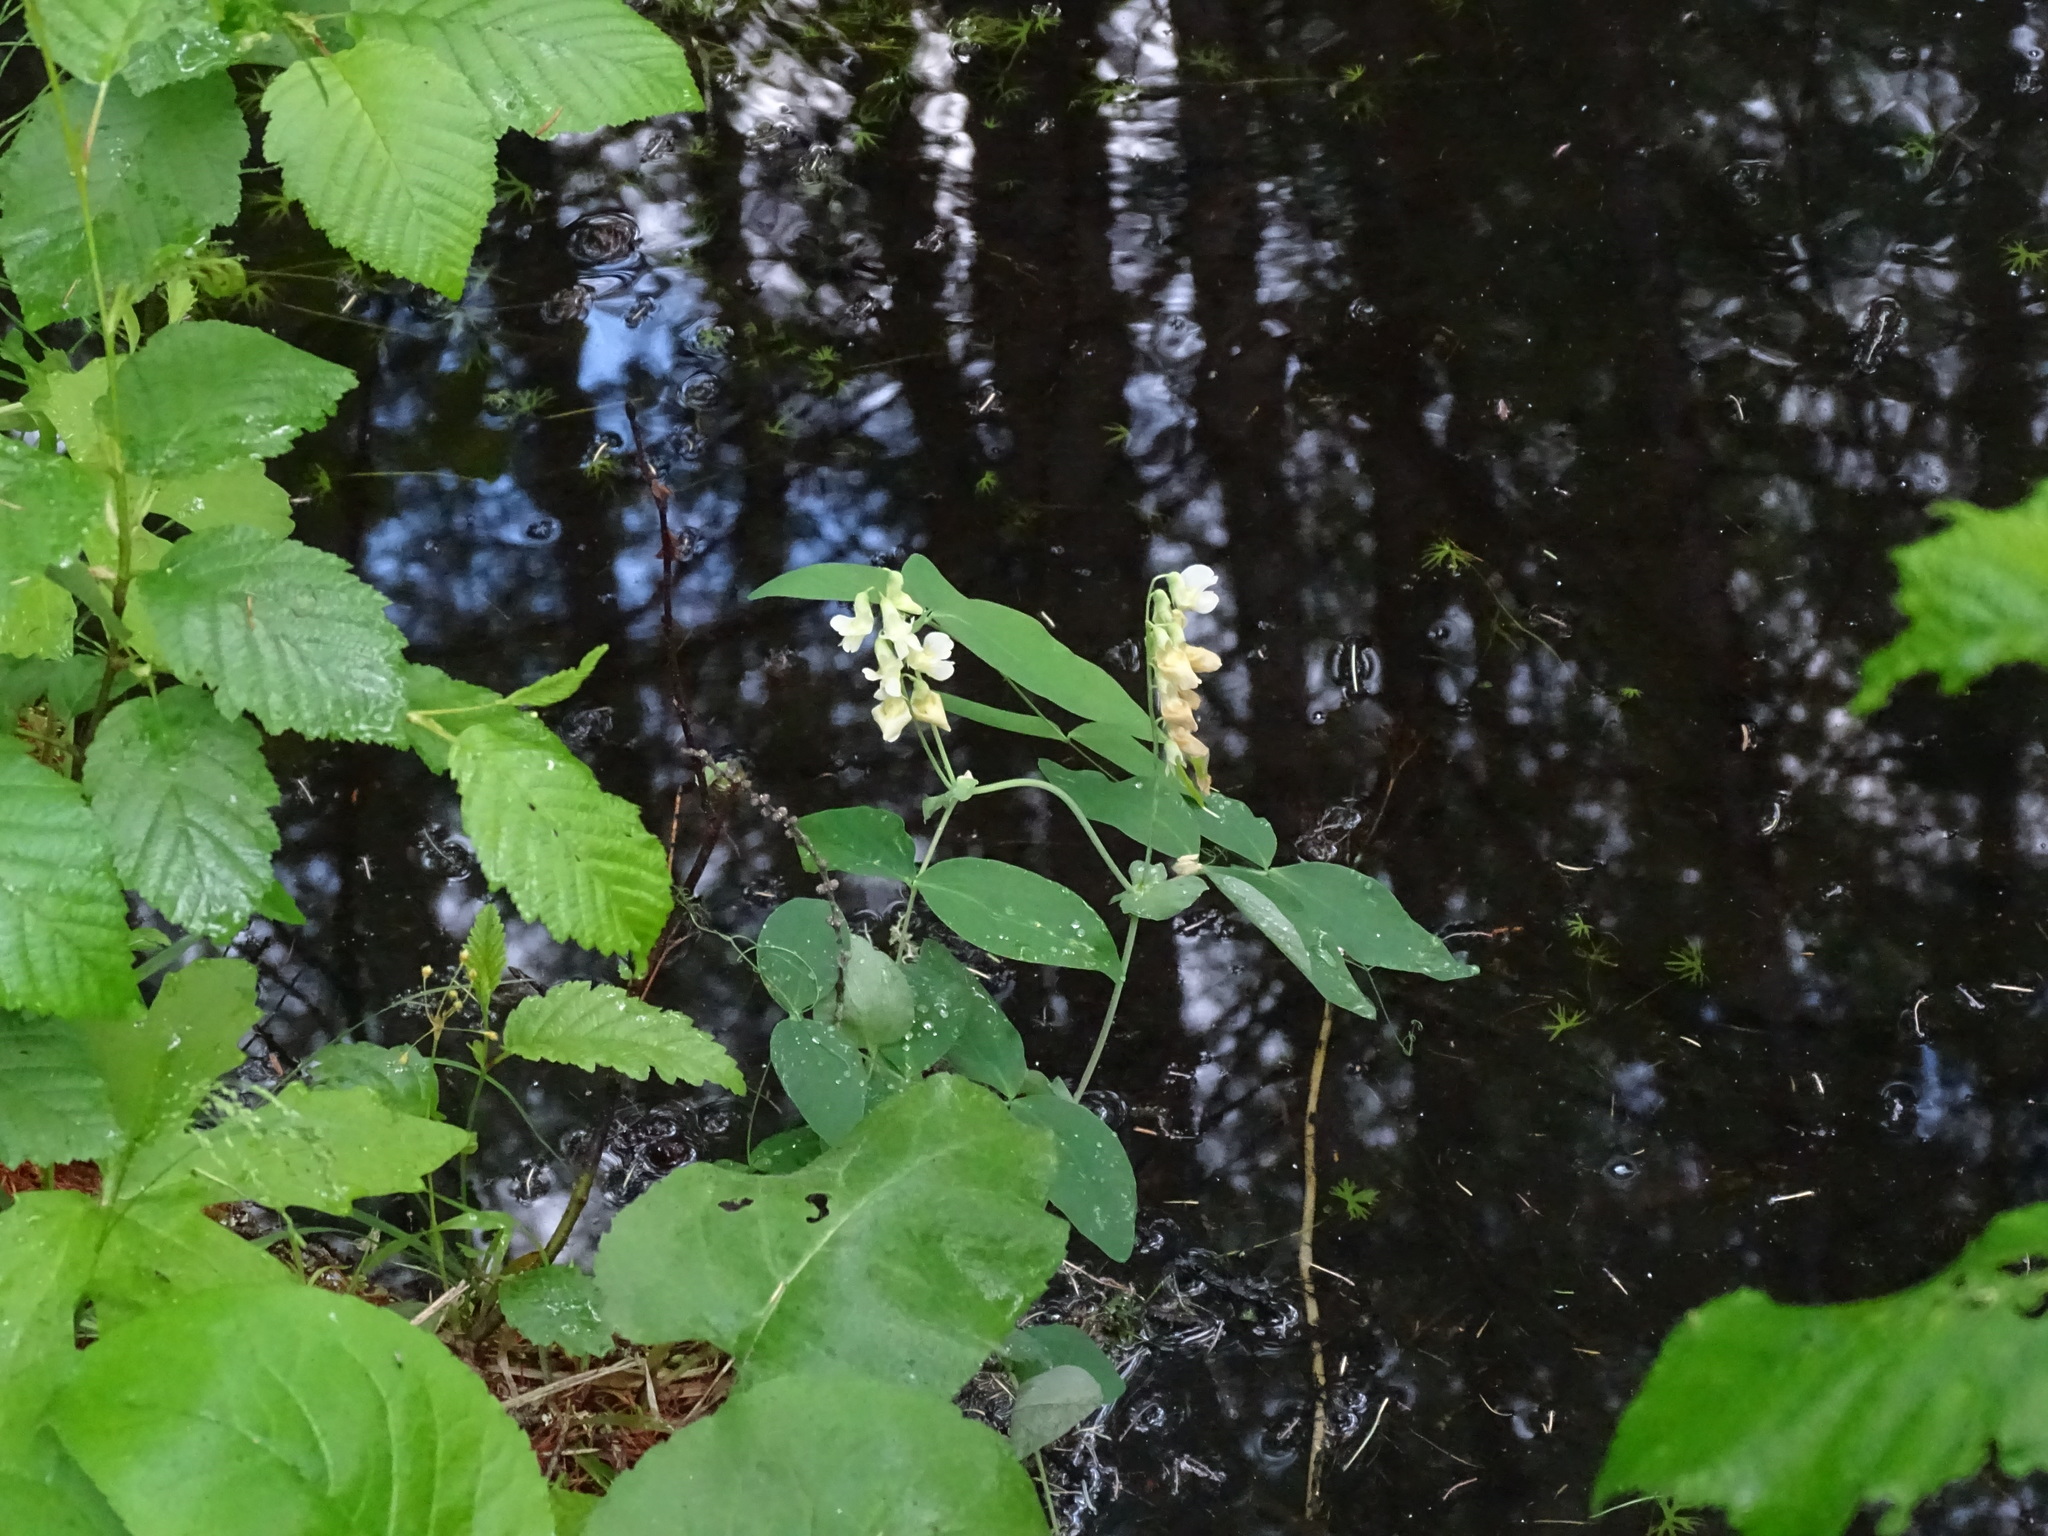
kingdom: Plantae
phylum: Tracheophyta
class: Magnoliopsida
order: Fabales
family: Fabaceae
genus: Lathyrus
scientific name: Lathyrus ochroleucus
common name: Pale vetchling
